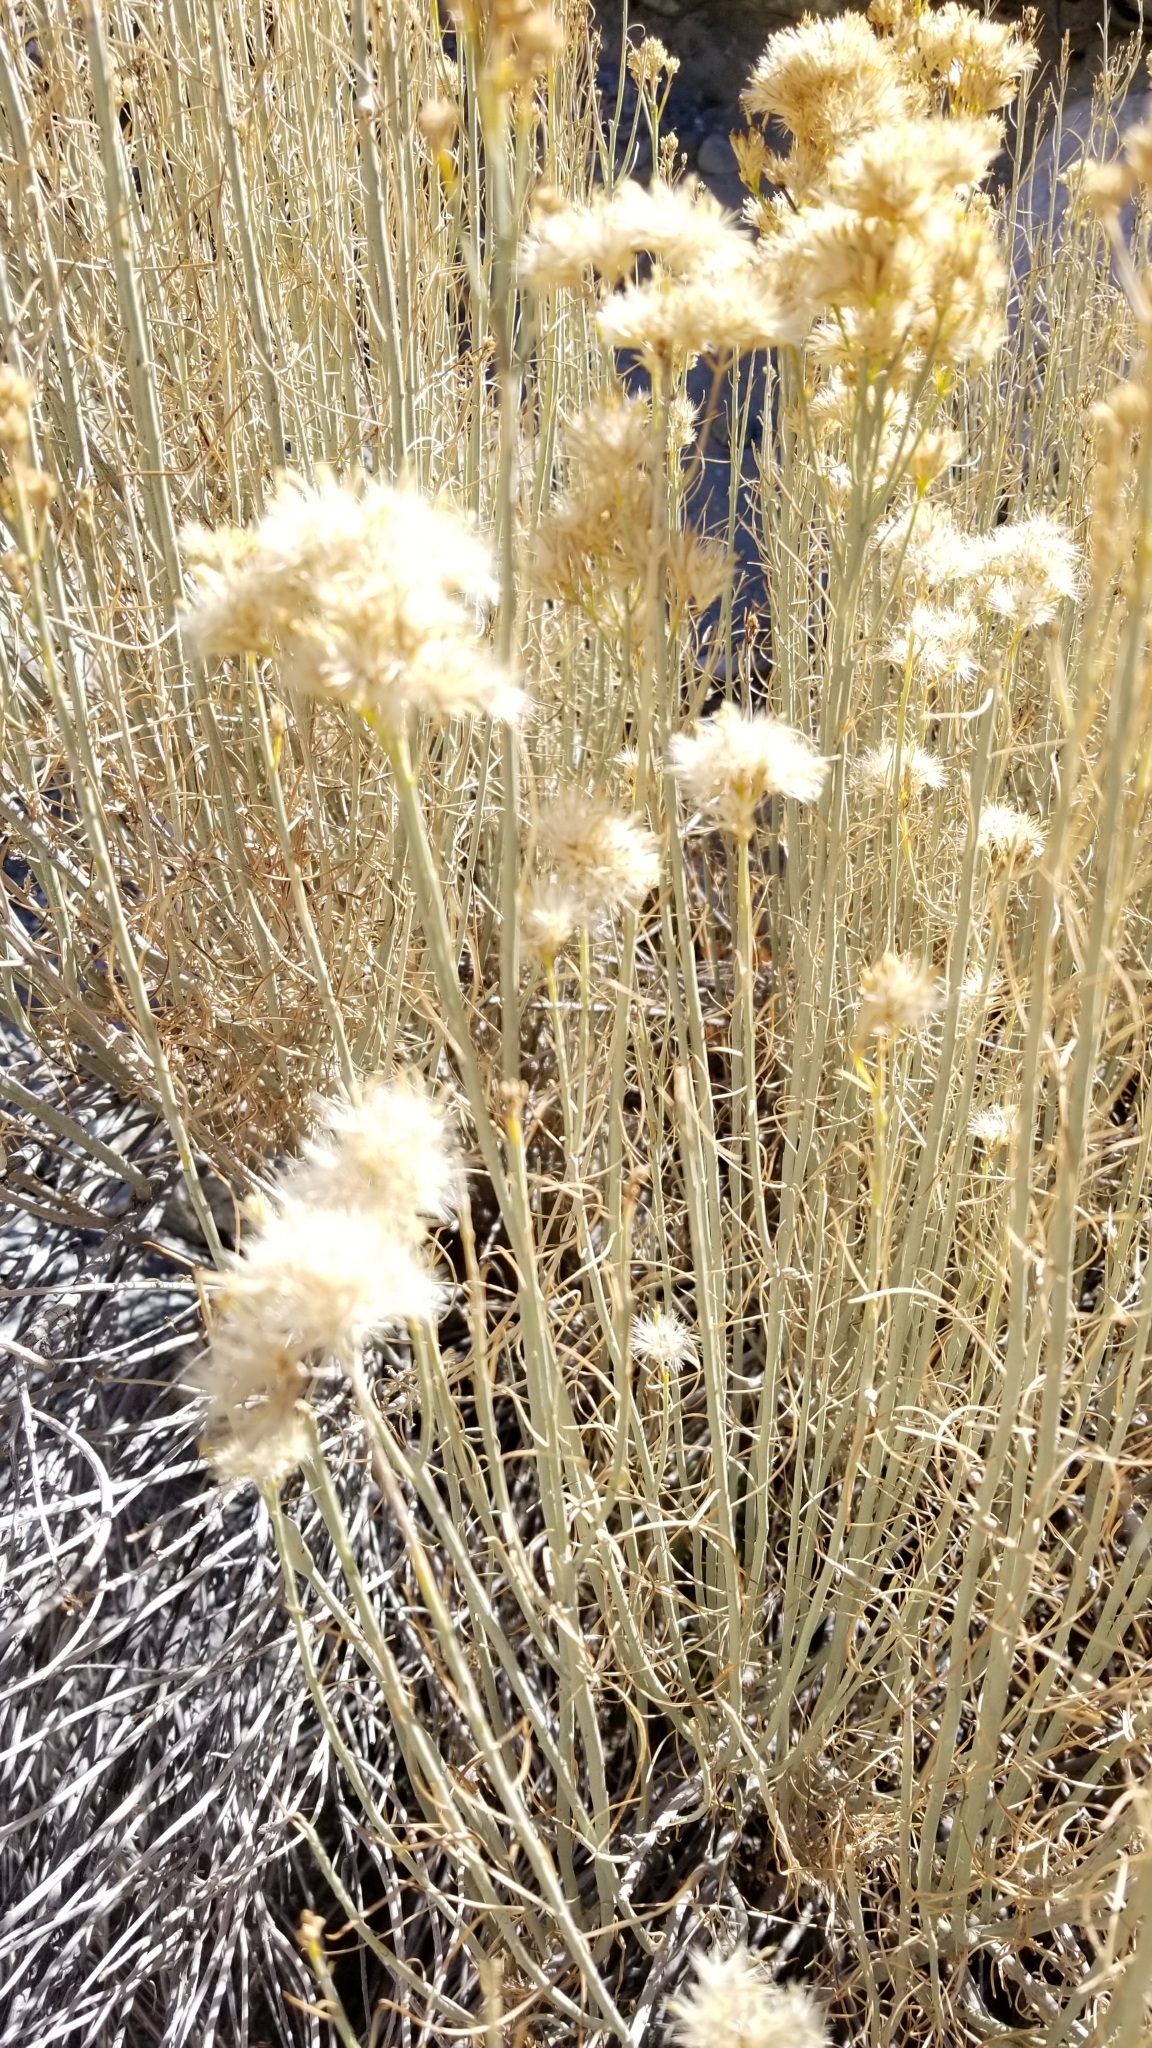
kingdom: Plantae
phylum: Tracheophyta
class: Magnoliopsida
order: Asterales
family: Asteraceae
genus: Ericameria
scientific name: Ericameria nauseosa
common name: Rubber rabbitbrush
